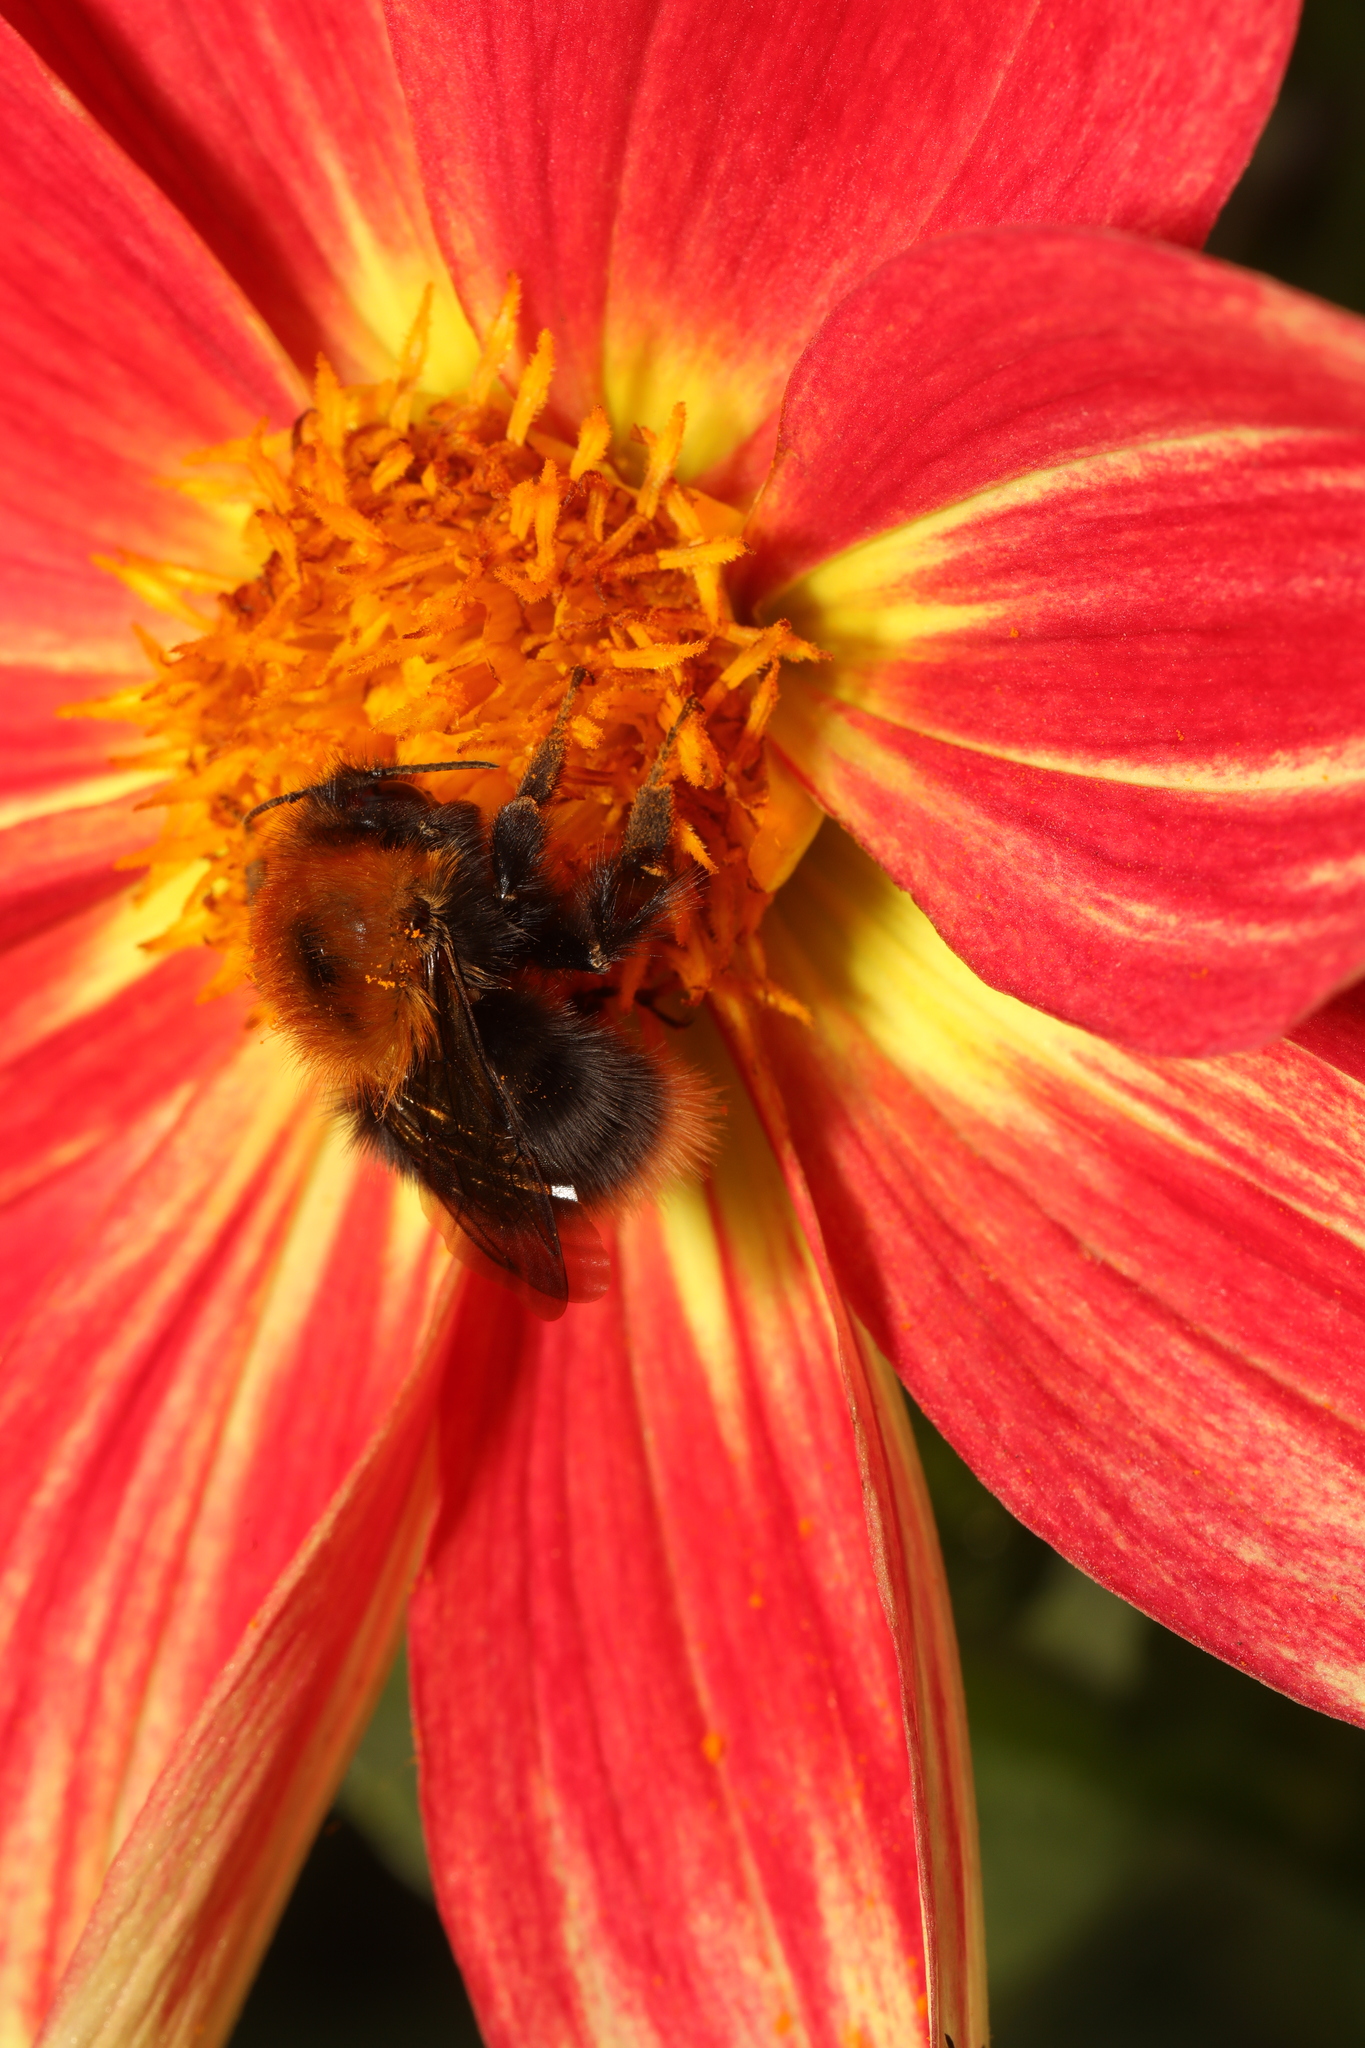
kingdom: Animalia
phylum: Arthropoda
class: Insecta
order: Hymenoptera
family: Apidae
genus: Bombus
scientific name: Bombus hypnorum
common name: New garden bumblebee
